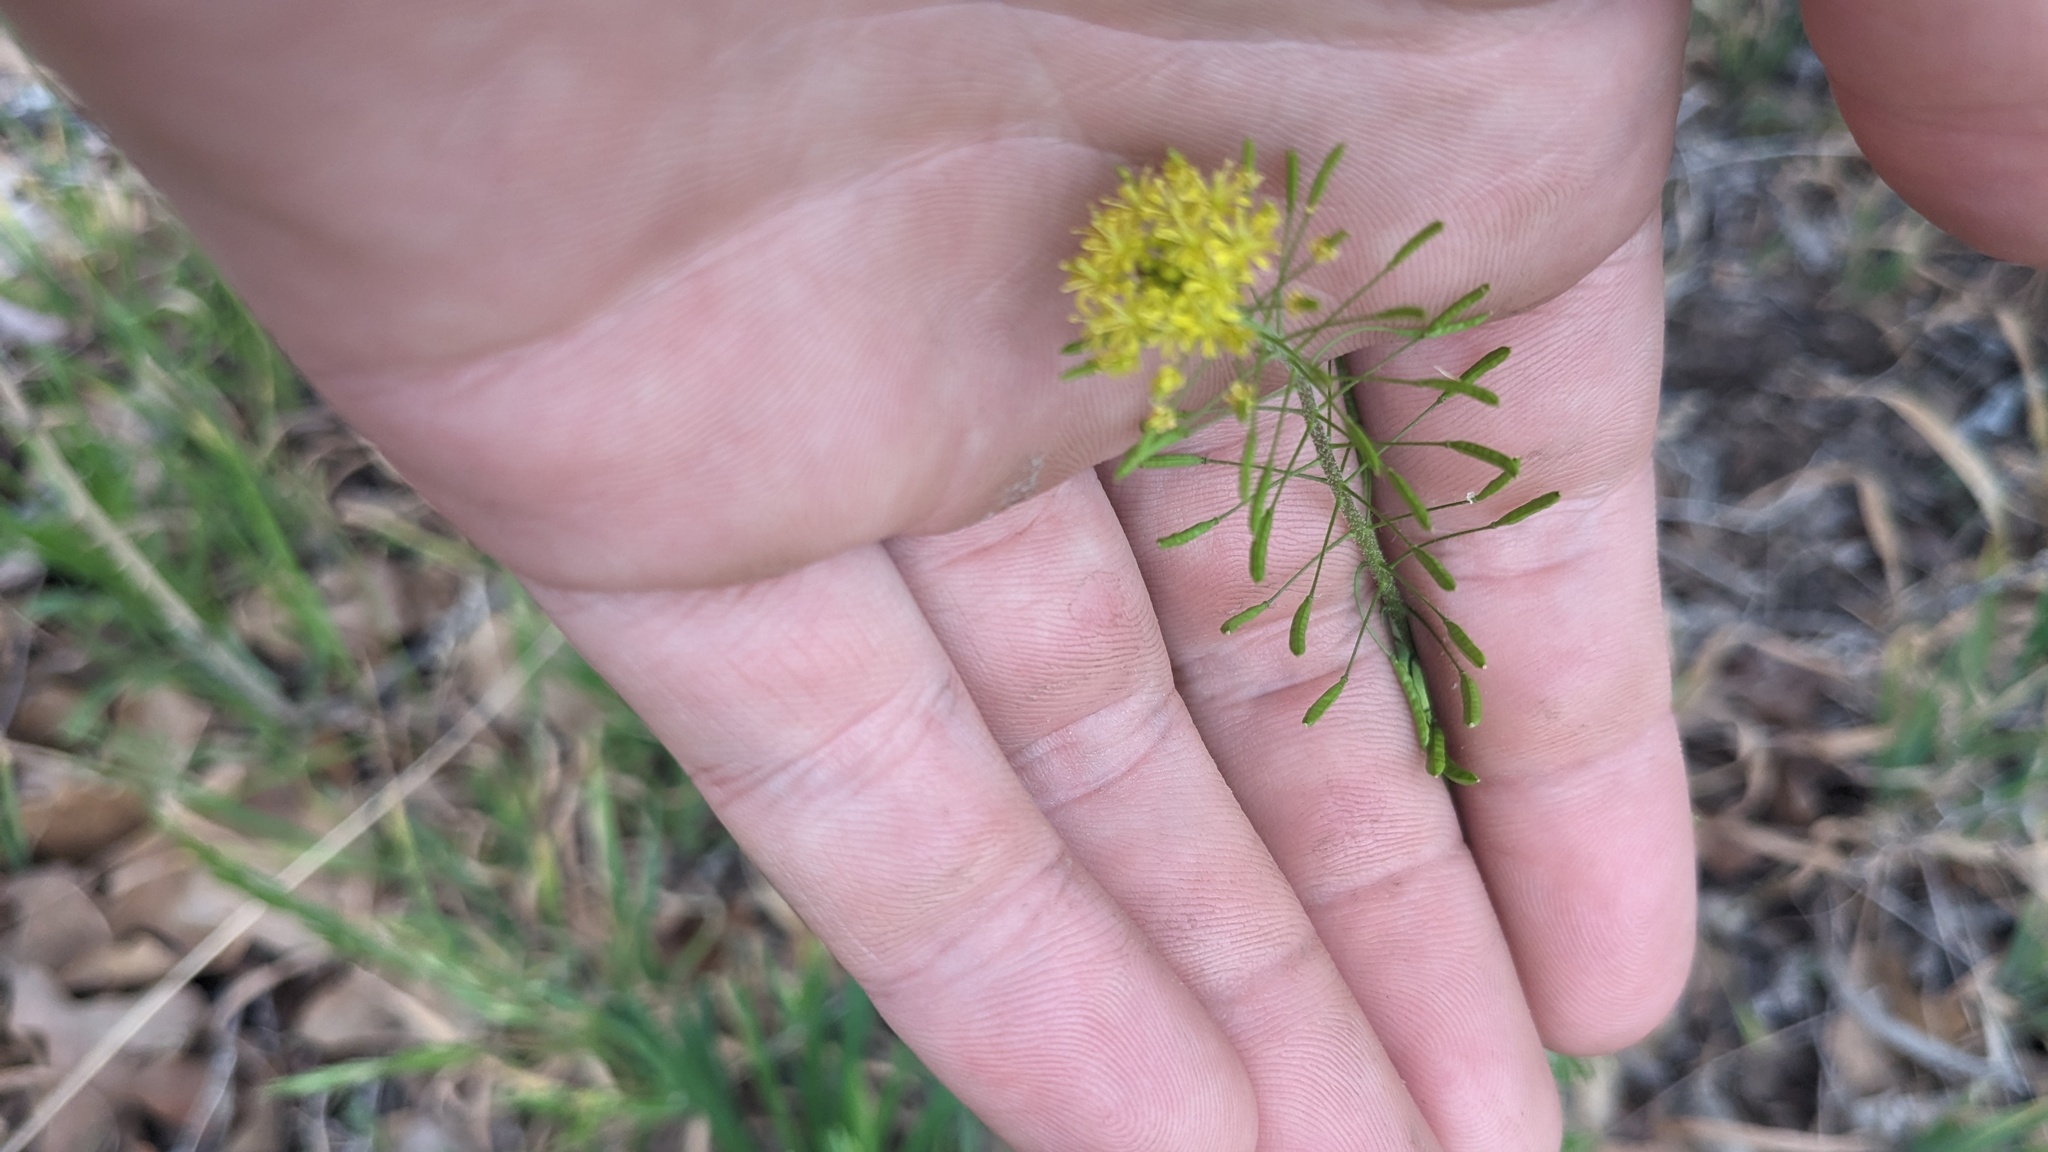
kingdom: Plantae
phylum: Tracheophyta
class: Magnoliopsida
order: Brassicales
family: Brassicaceae
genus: Descurainia
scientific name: Descurainia pinnata
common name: Western tansy mustard
